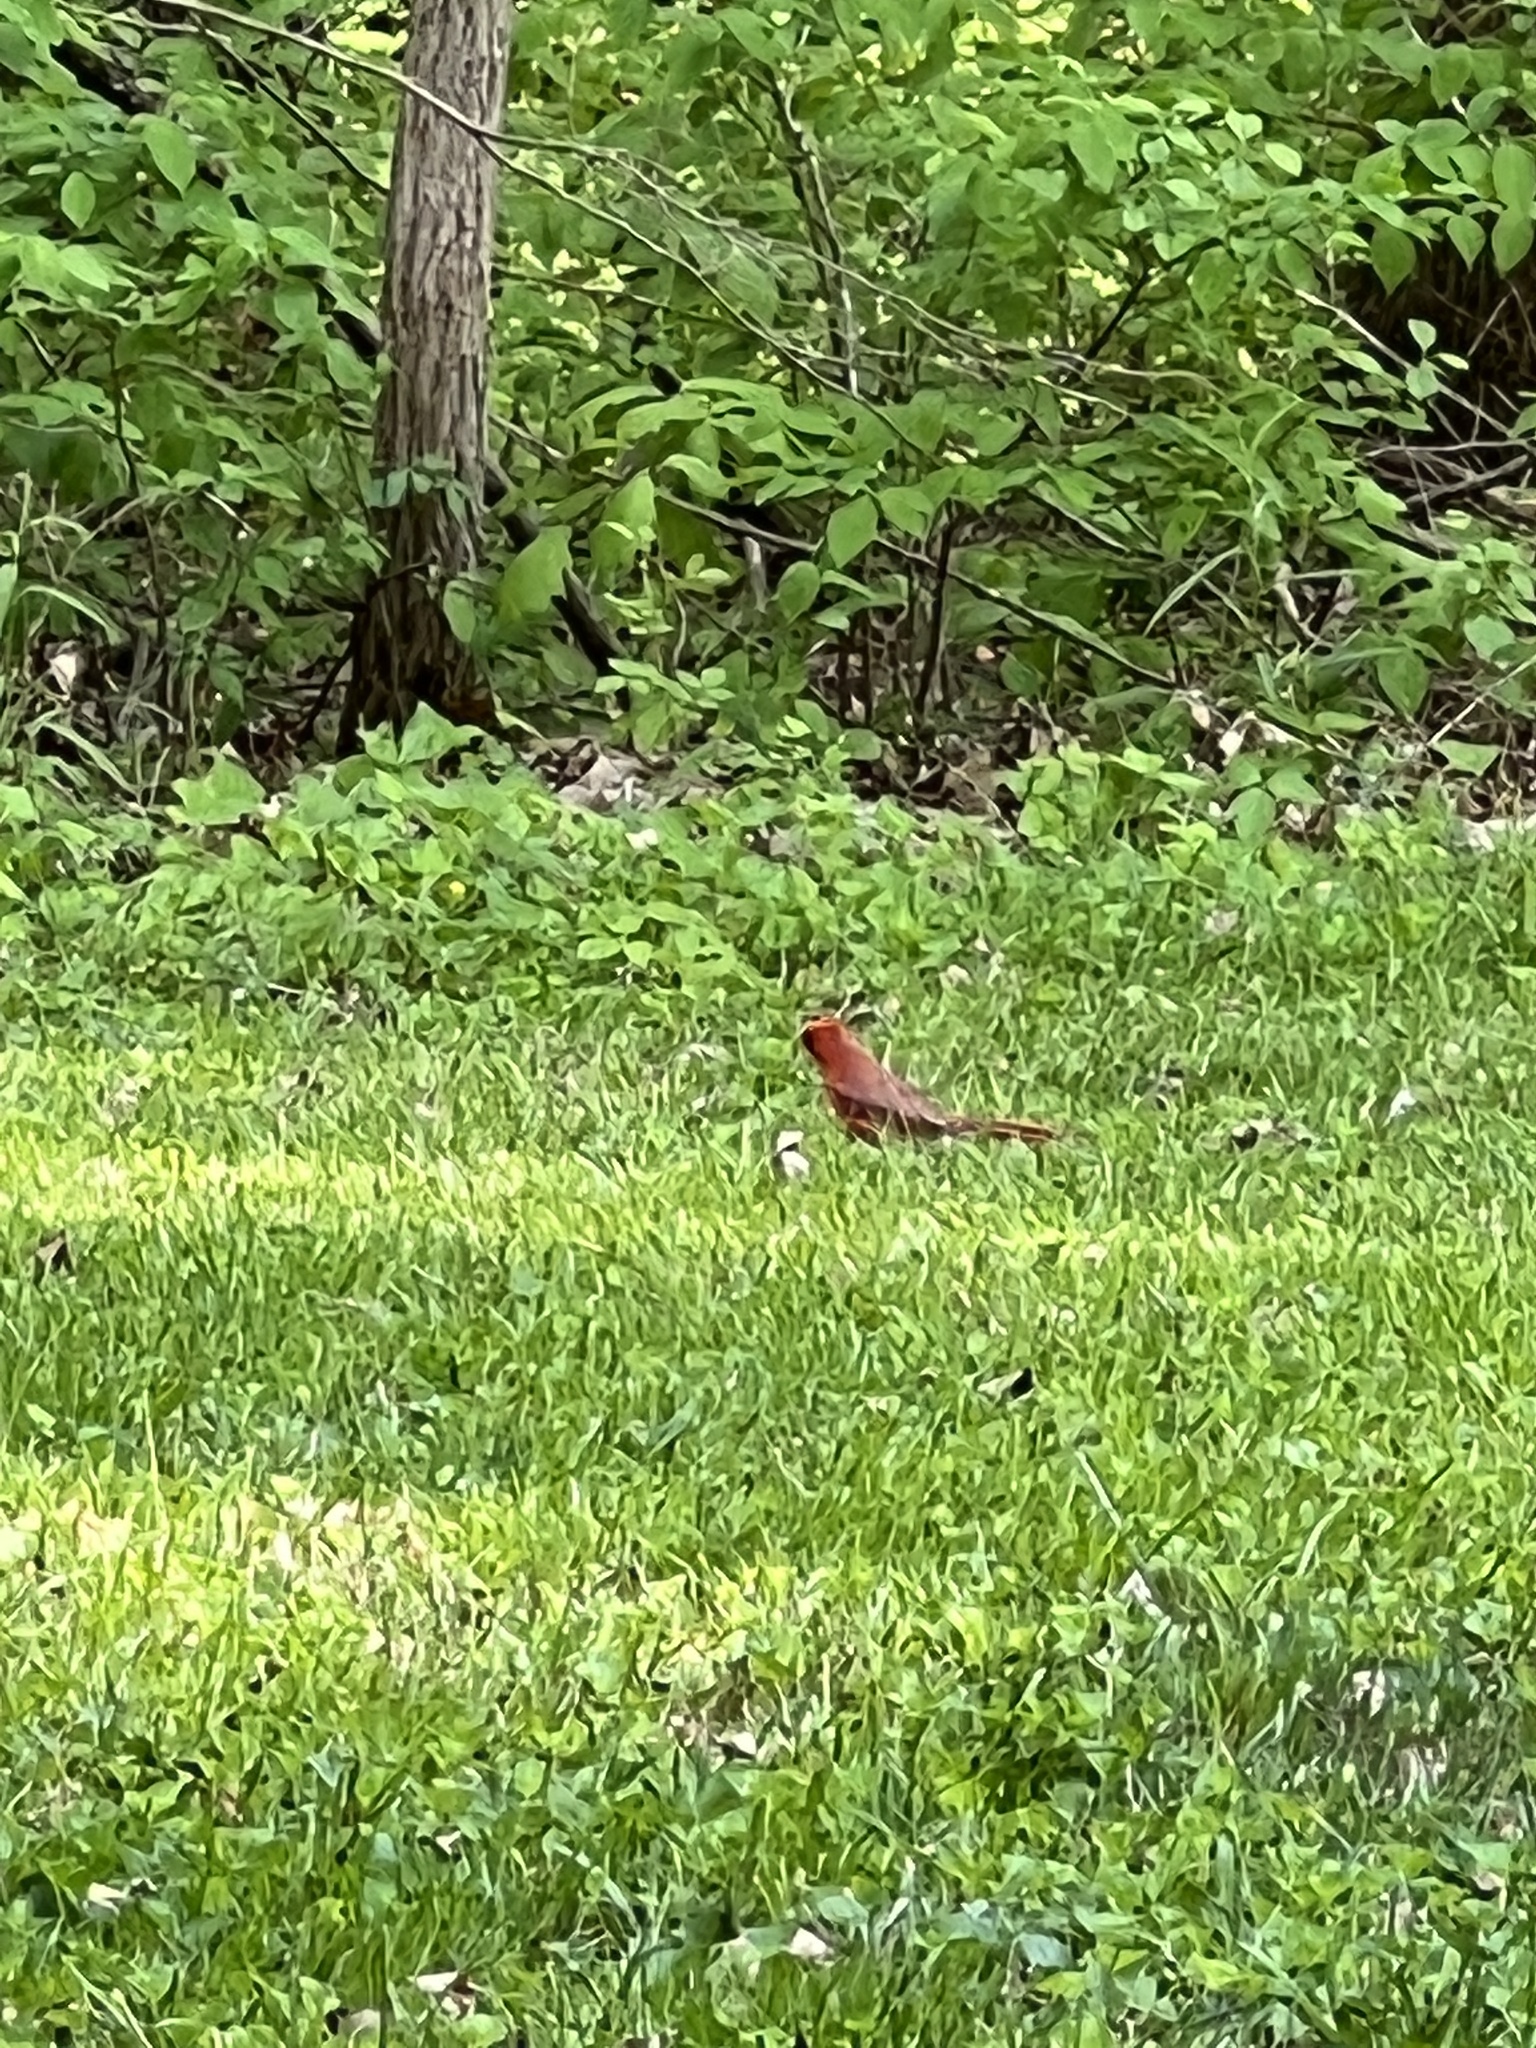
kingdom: Animalia
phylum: Chordata
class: Aves
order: Passeriformes
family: Cardinalidae
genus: Cardinalis
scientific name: Cardinalis cardinalis
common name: Northern cardinal
